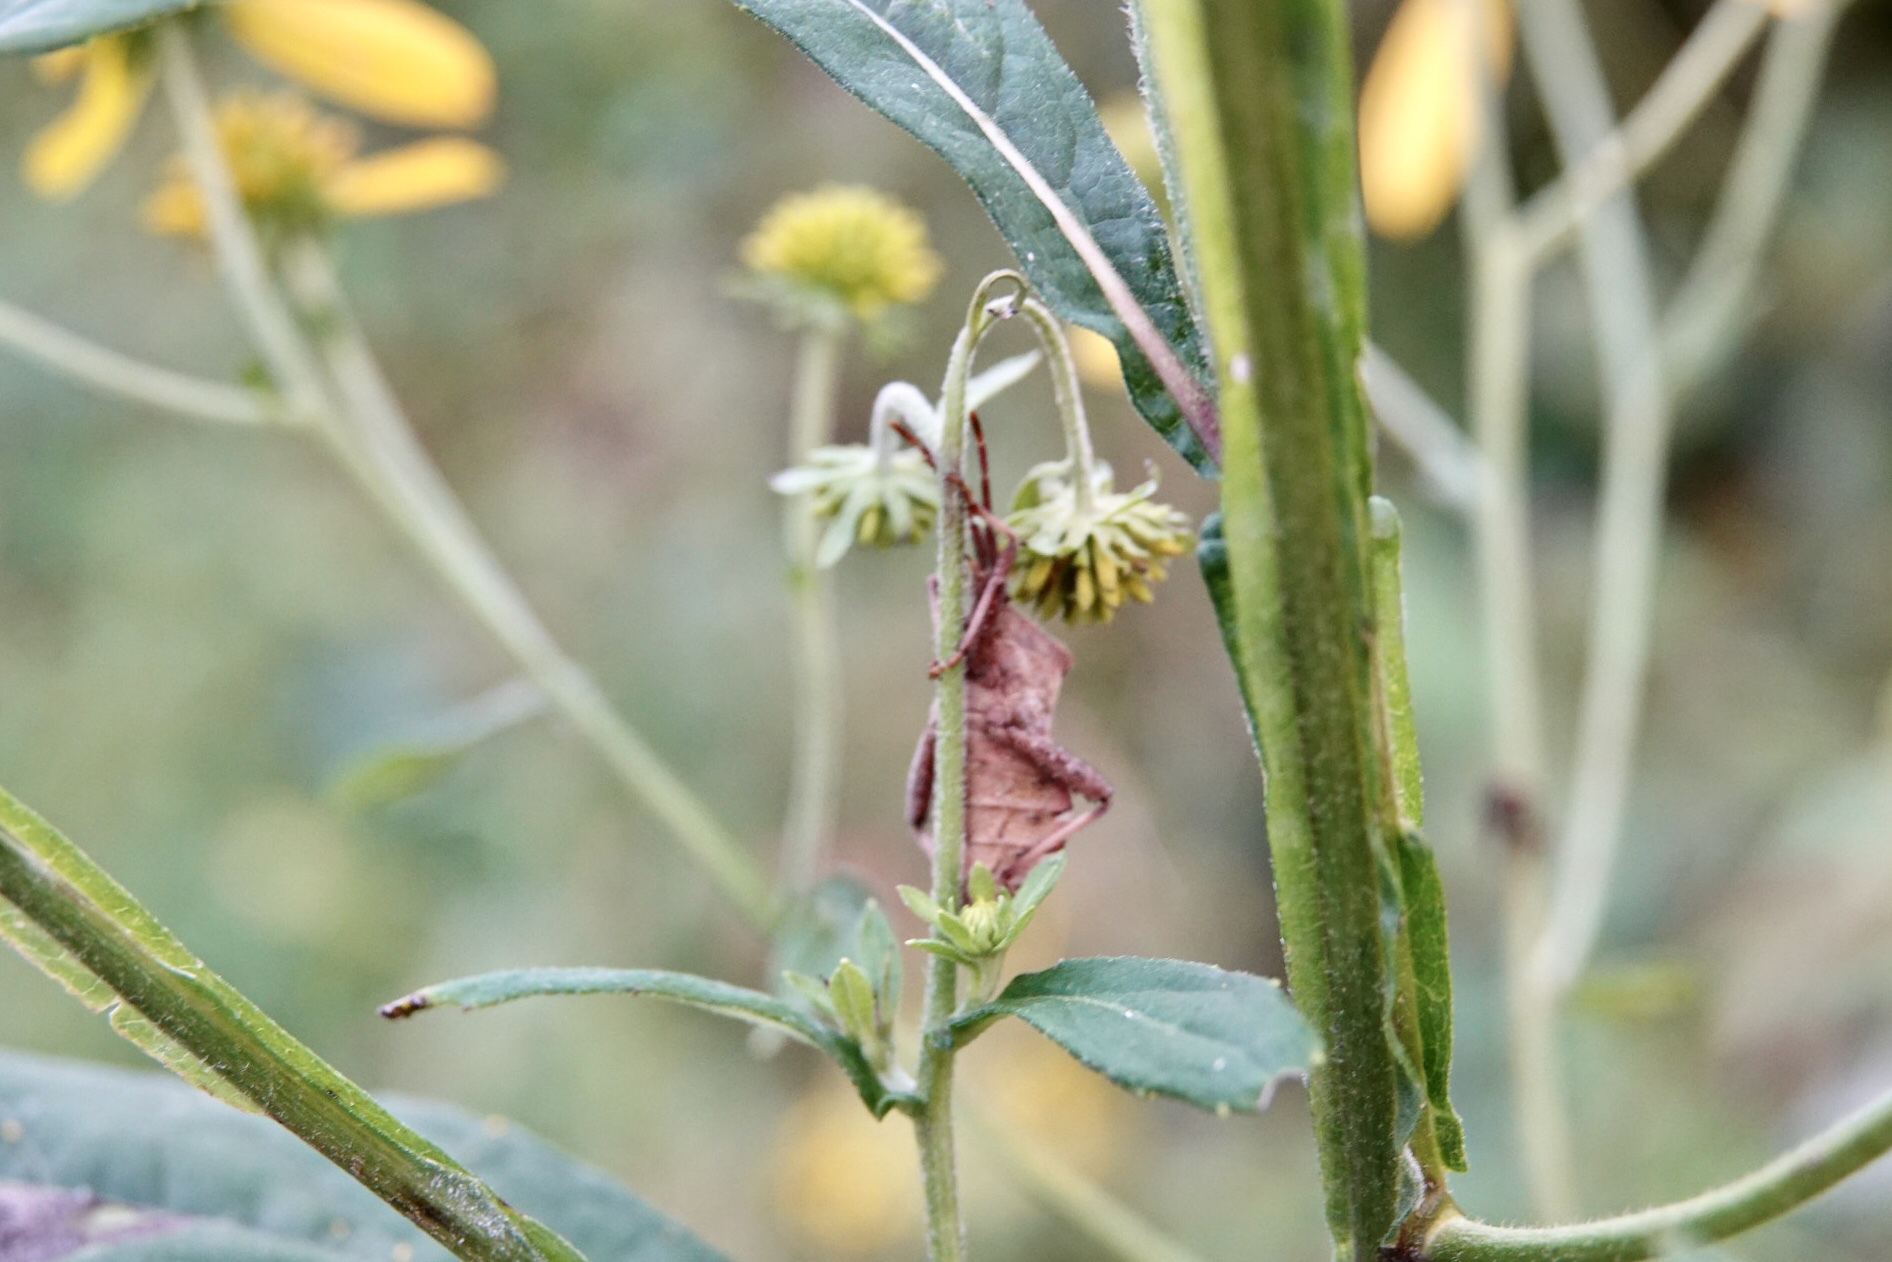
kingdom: Animalia
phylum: Arthropoda
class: Insecta
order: Hemiptera
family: Coreidae
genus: Piezogaster
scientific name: Piezogaster calcarator
